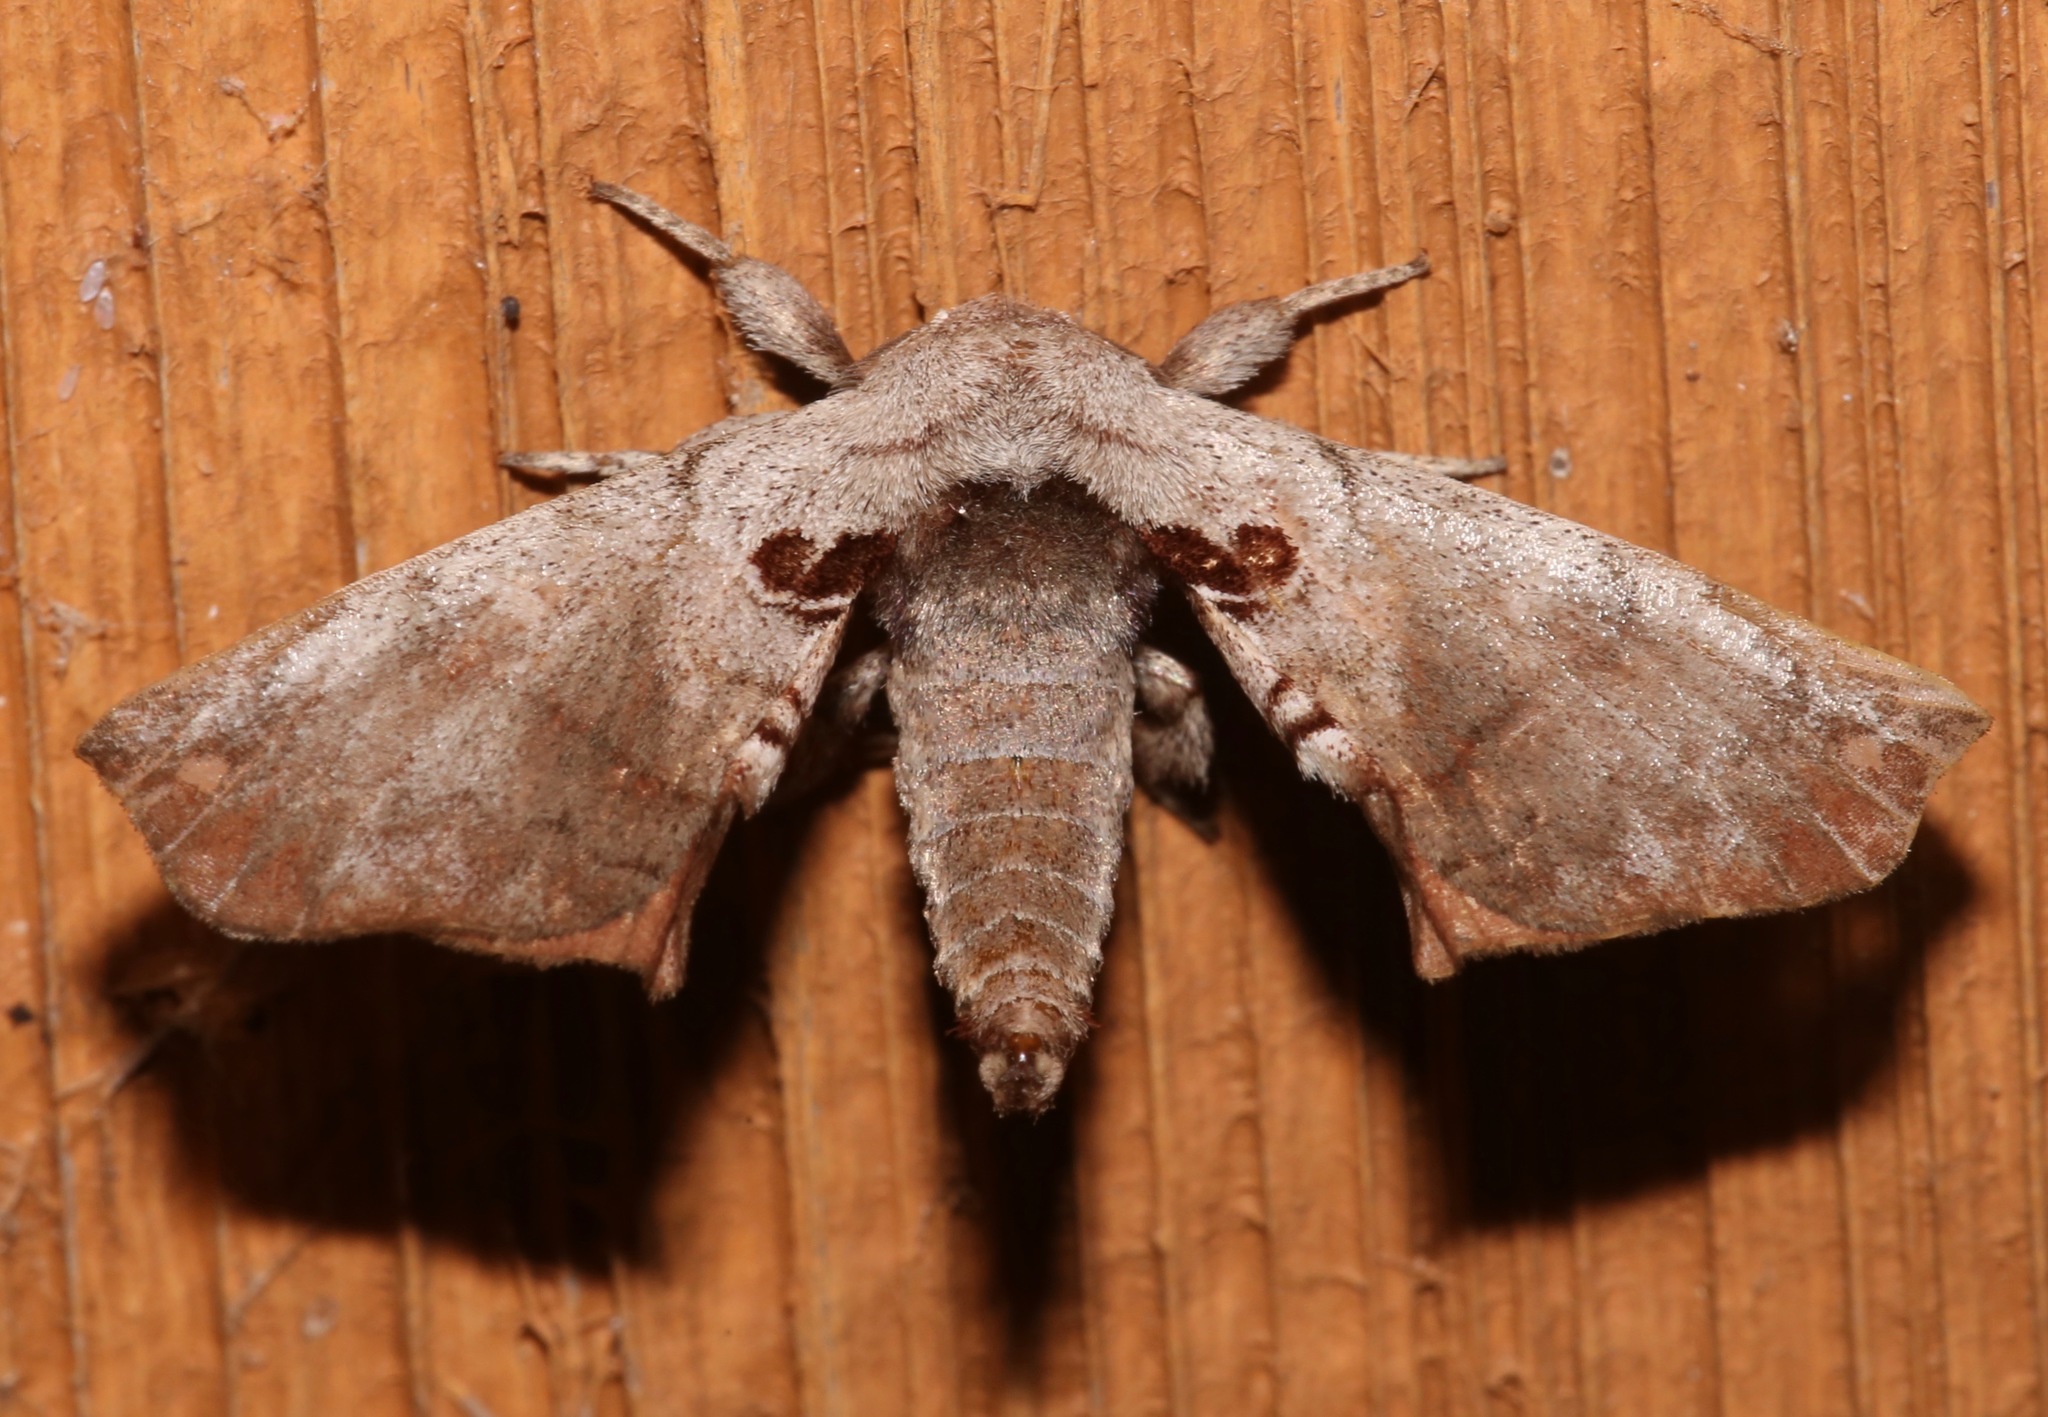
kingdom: Animalia
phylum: Arthropoda
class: Insecta
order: Lepidoptera
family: Apatelodidae
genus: Hygrochroa
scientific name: Hygrochroa Apatelodes torrefacta
